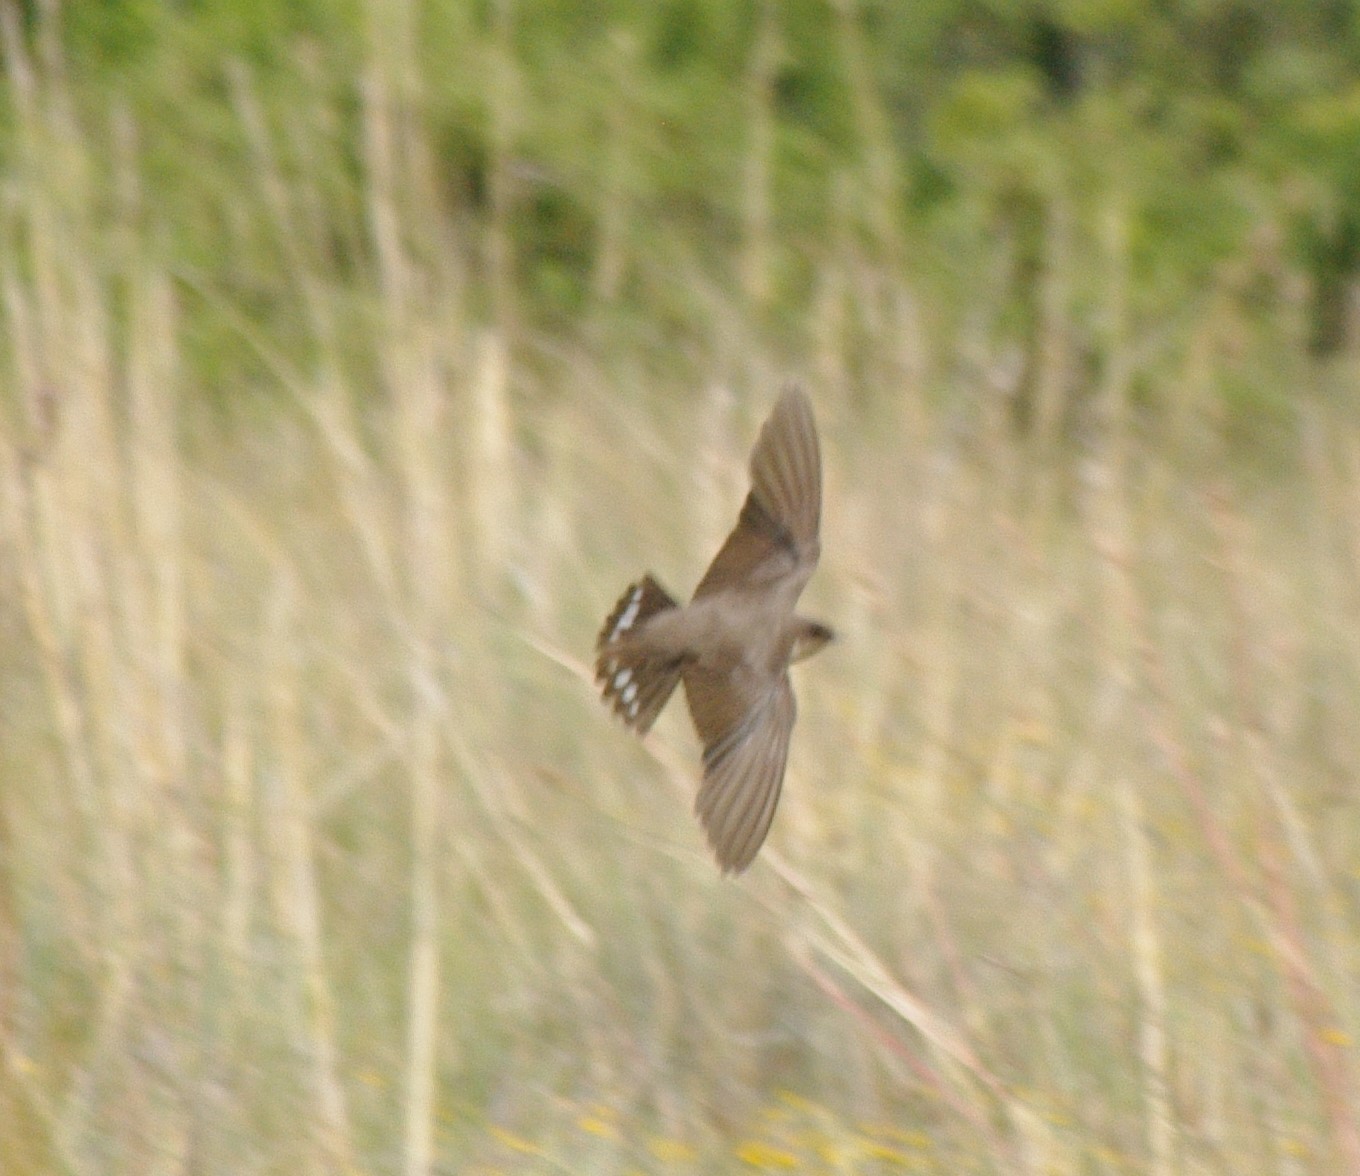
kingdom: Animalia
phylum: Chordata
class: Aves
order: Passeriformes
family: Hirundinidae
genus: Ptyonoprogne
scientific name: Ptyonoprogne fuligula
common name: Rock martin
